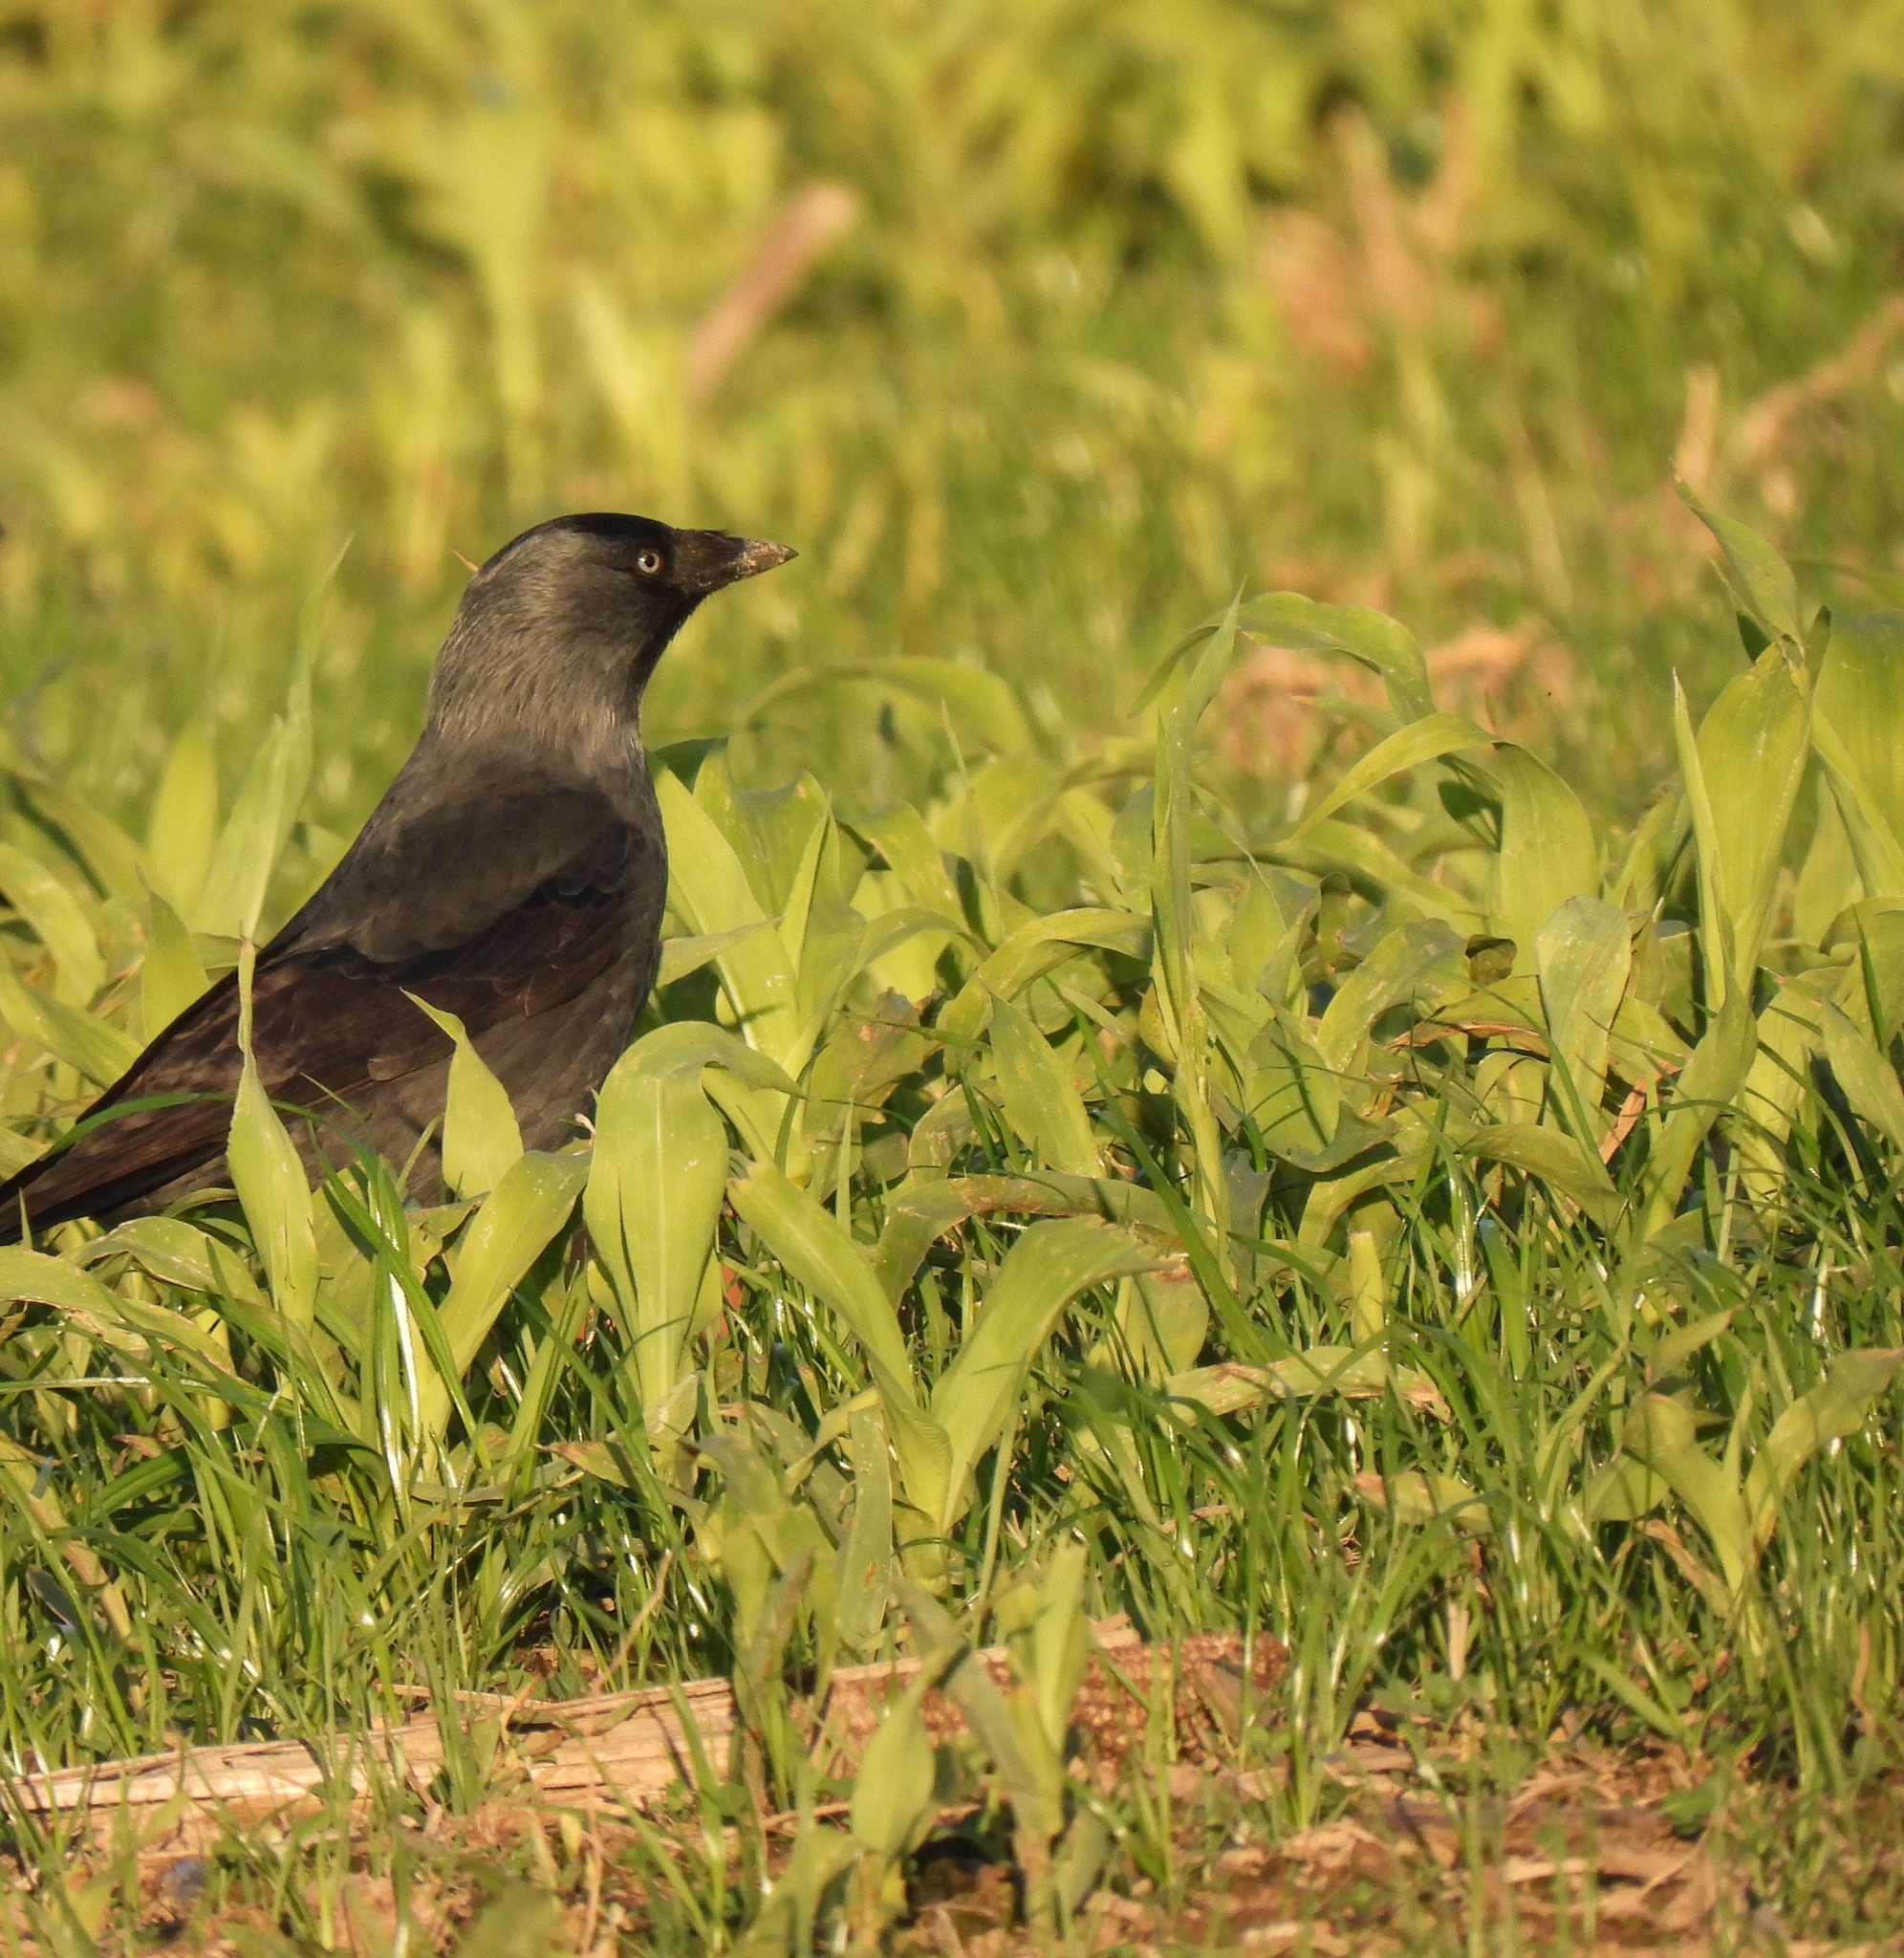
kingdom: Animalia
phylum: Chordata
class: Aves
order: Passeriformes
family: Corvidae
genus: Coloeus
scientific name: Coloeus monedula
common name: Western jackdaw
